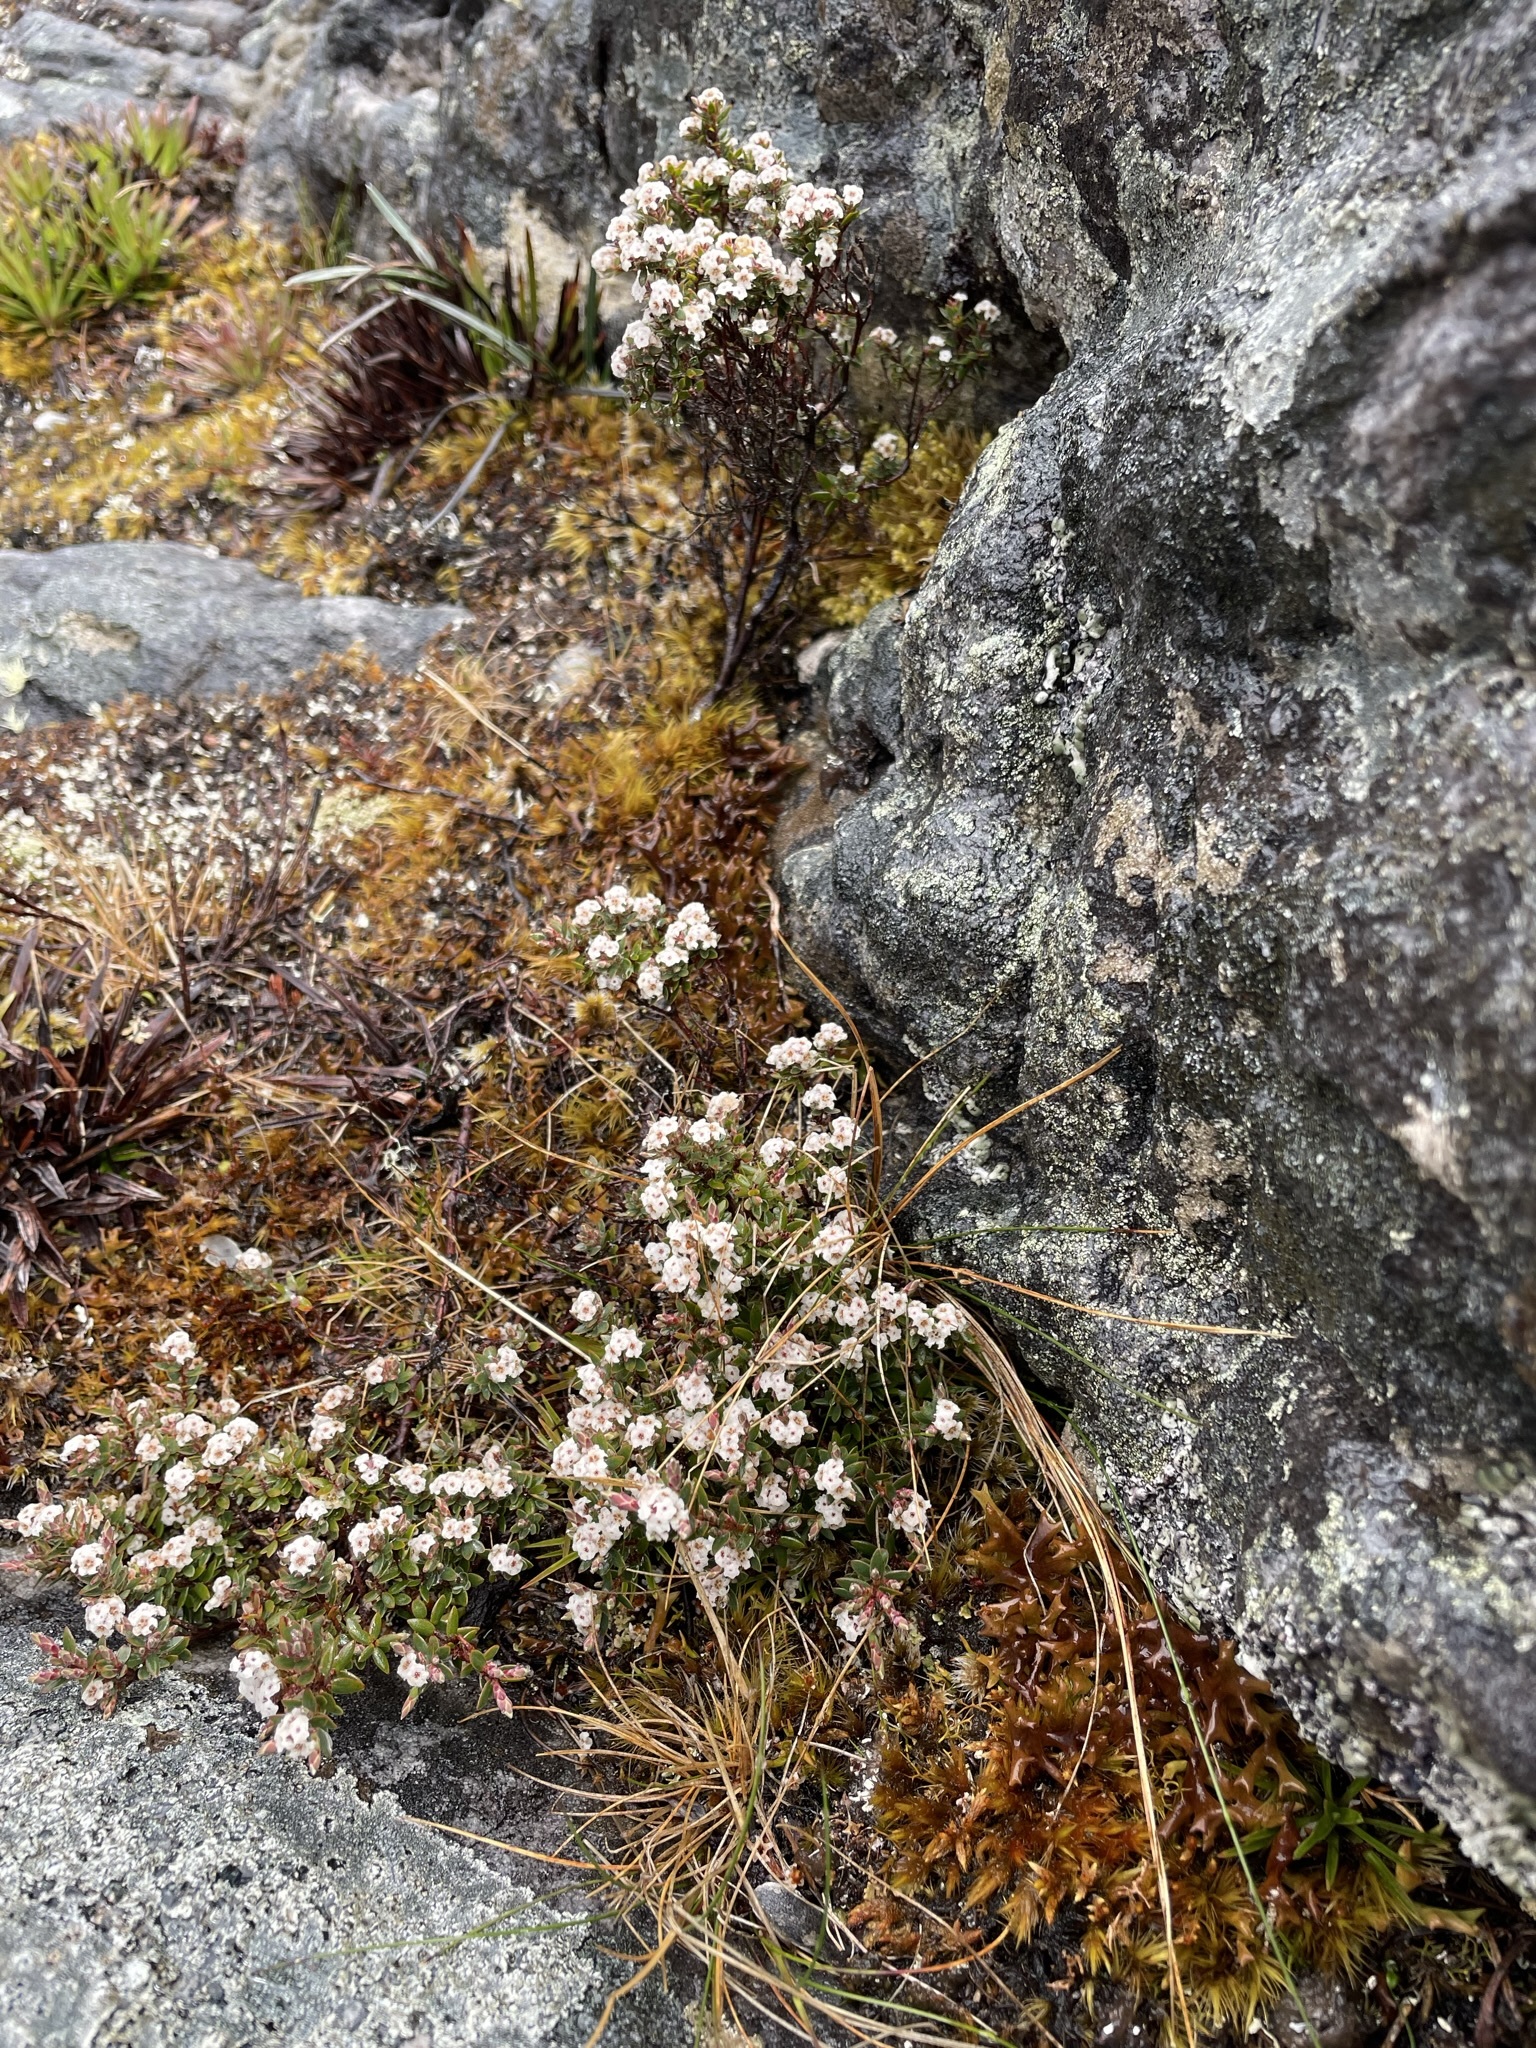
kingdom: Plantae
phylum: Tracheophyta
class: Magnoliopsida
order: Ericales
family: Ericaceae
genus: Leucopogon
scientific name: Leucopogon oreophilus
